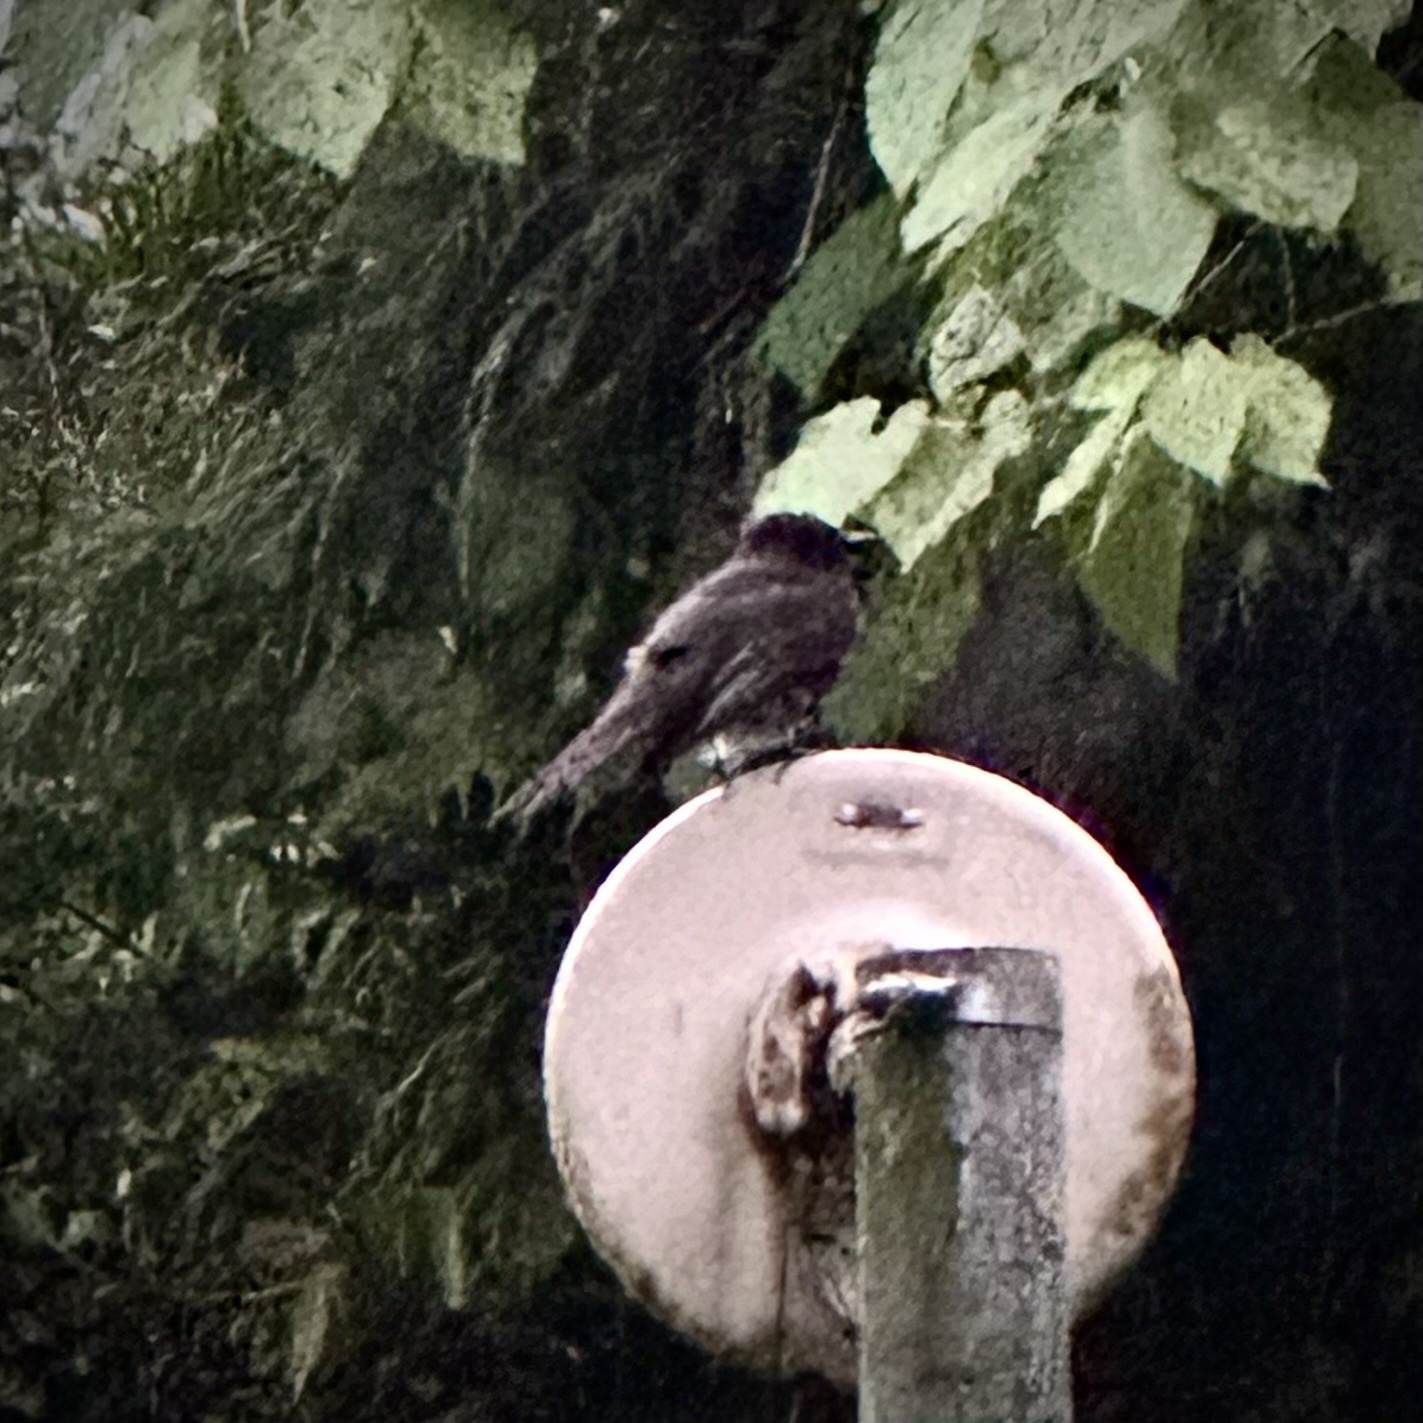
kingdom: Animalia
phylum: Chordata
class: Aves
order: Passeriformes
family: Tyrannidae
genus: Sayornis
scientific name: Sayornis nigricans
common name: Black phoebe
